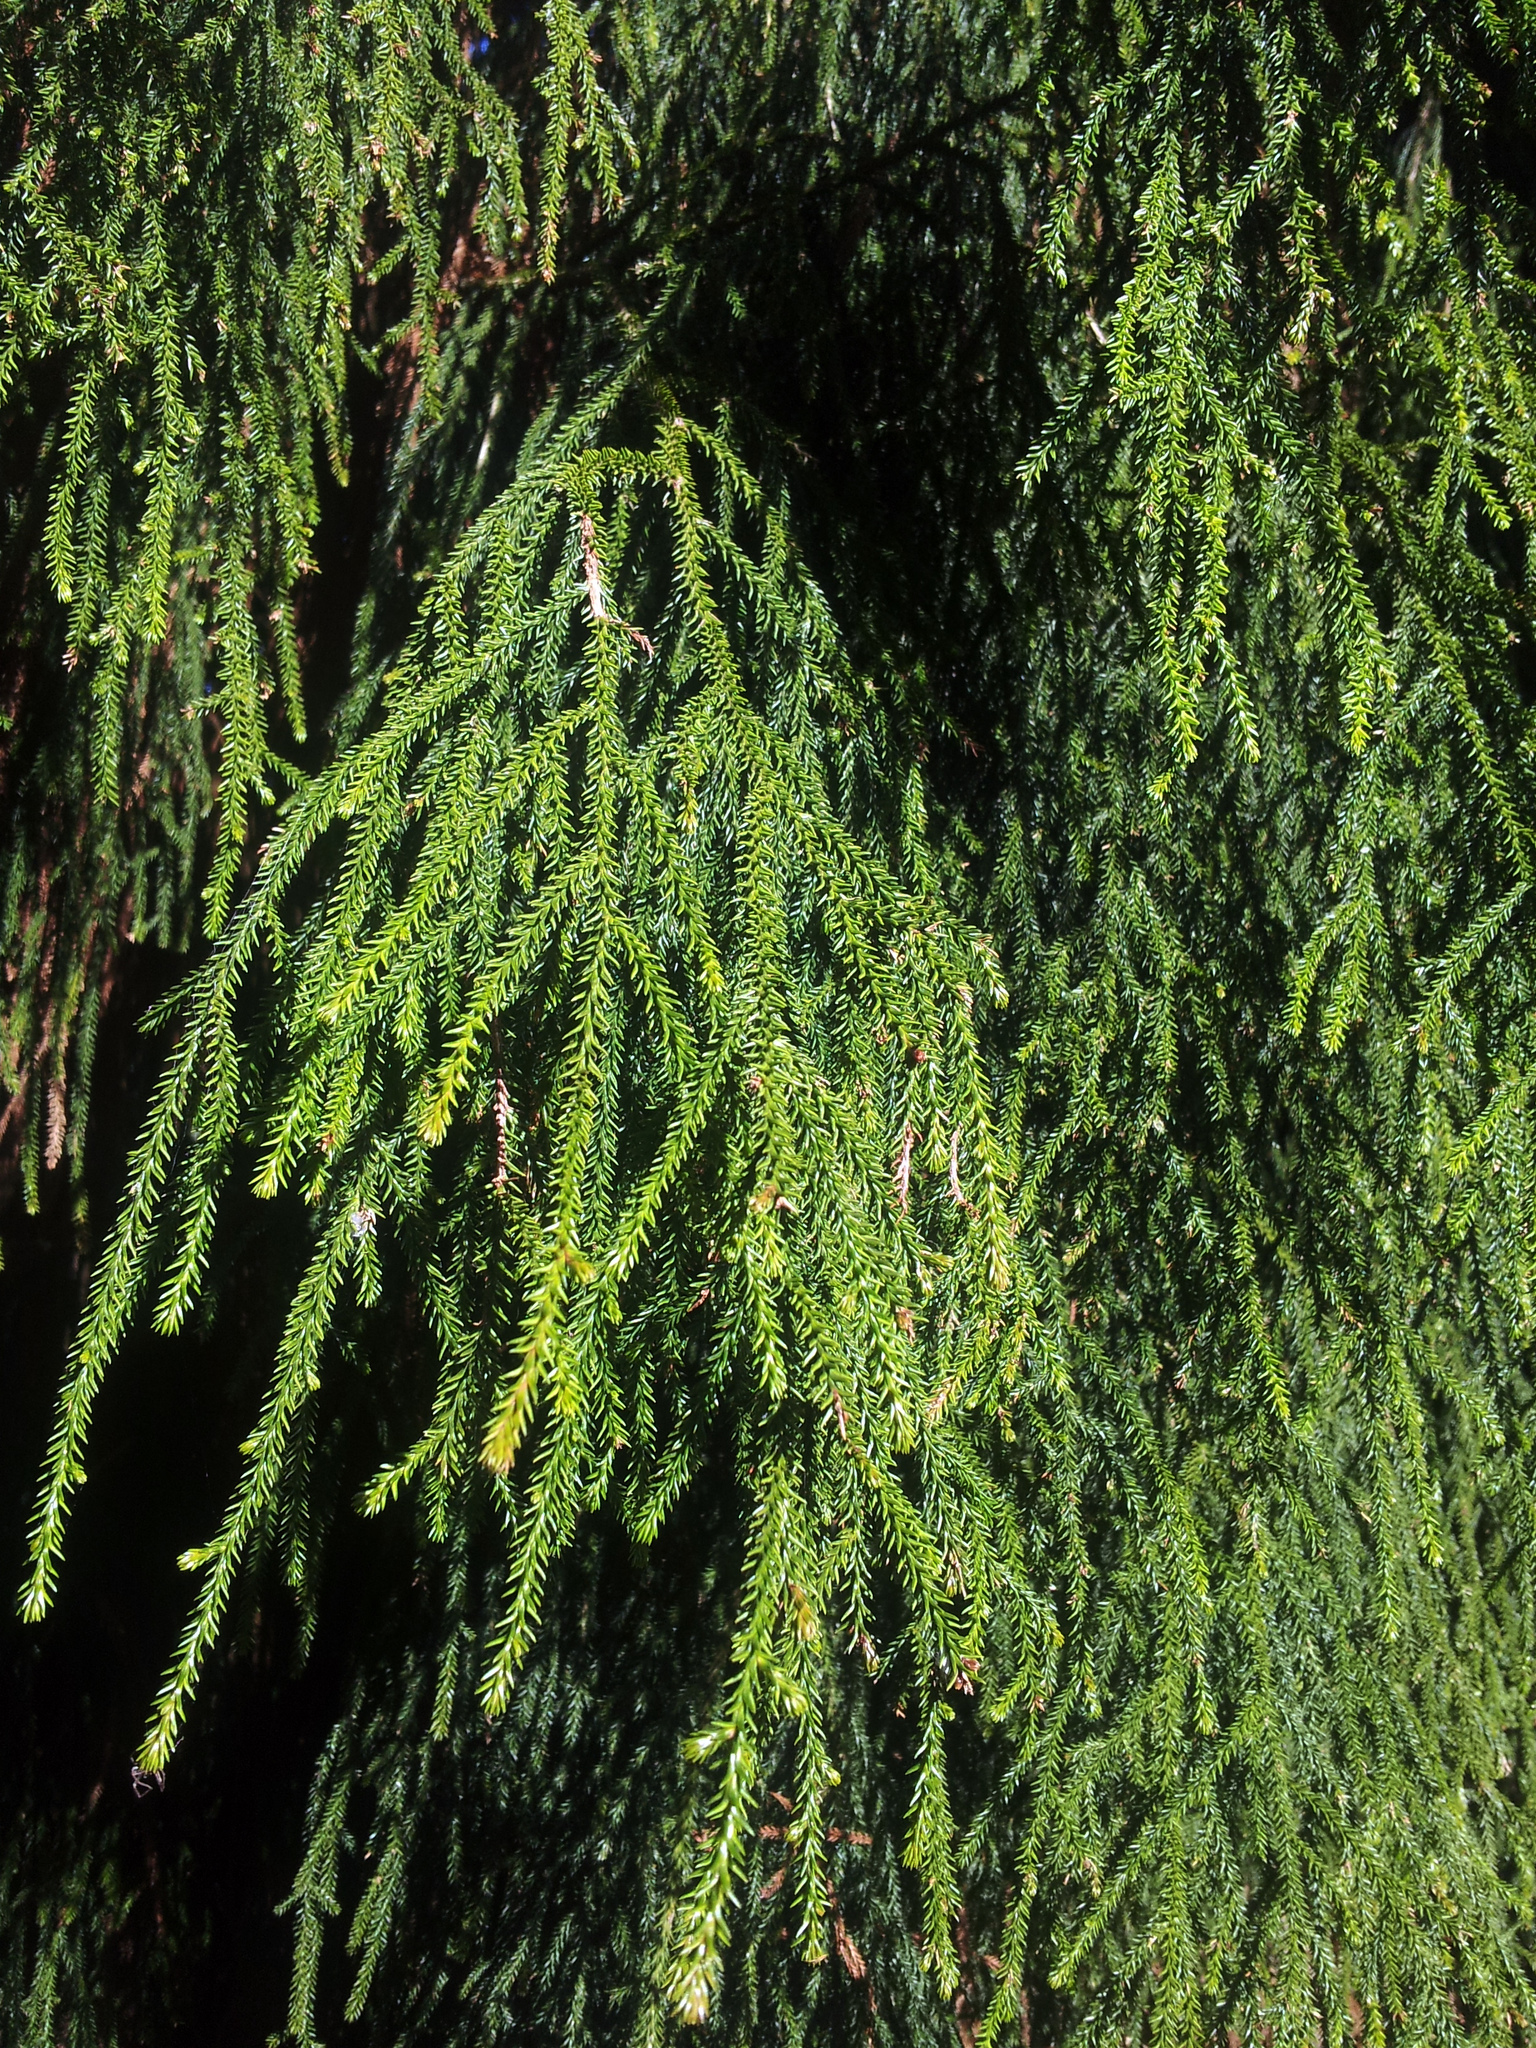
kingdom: Plantae
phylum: Tracheophyta
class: Pinopsida
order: Pinales
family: Podocarpaceae
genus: Dacrydium
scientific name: Dacrydium cupressinum
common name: Red pine
